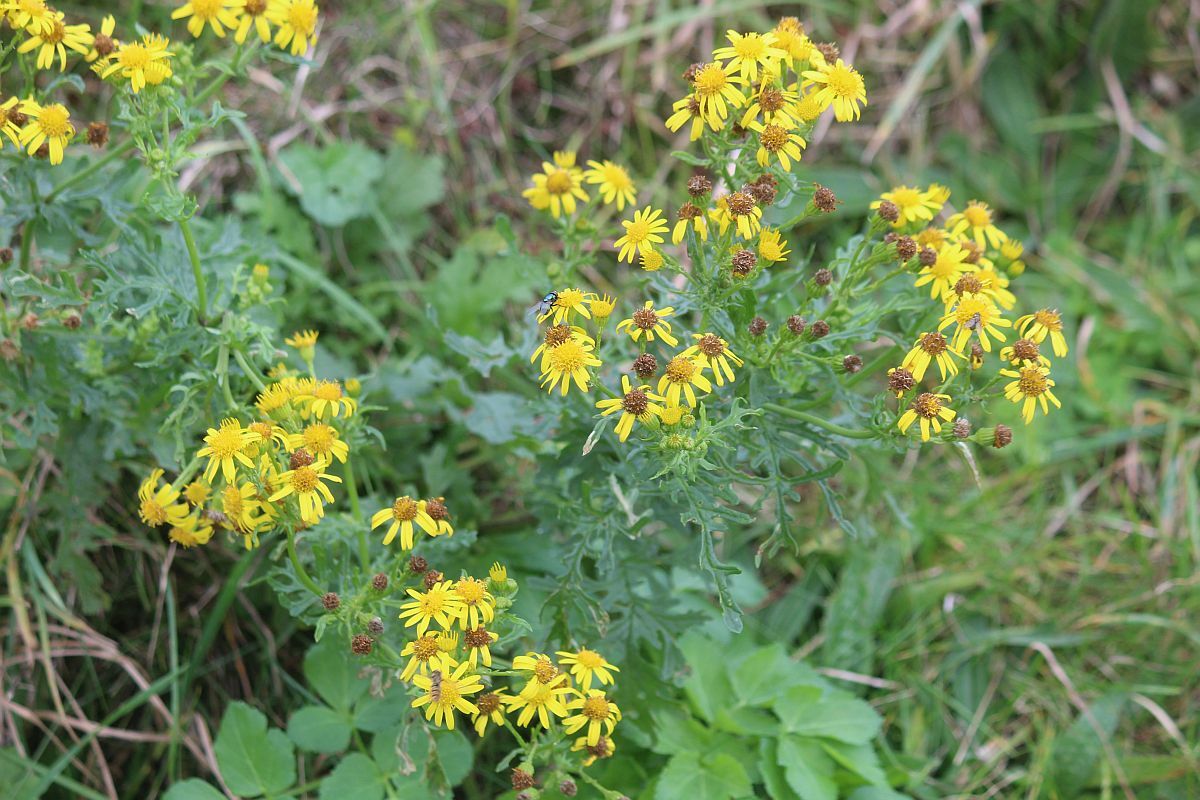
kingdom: Plantae
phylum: Tracheophyta
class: Magnoliopsida
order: Asterales
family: Asteraceae
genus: Jacobaea
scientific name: Jacobaea vulgaris
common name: Stinking willie
